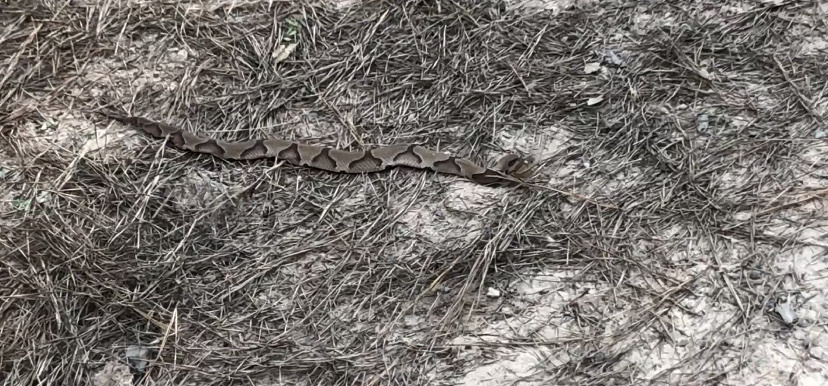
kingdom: Animalia
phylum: Chordata
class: Squamata
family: Viperidae
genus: Agkistrodon
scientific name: Agkistrodon contortrix
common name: Northern copperhead
